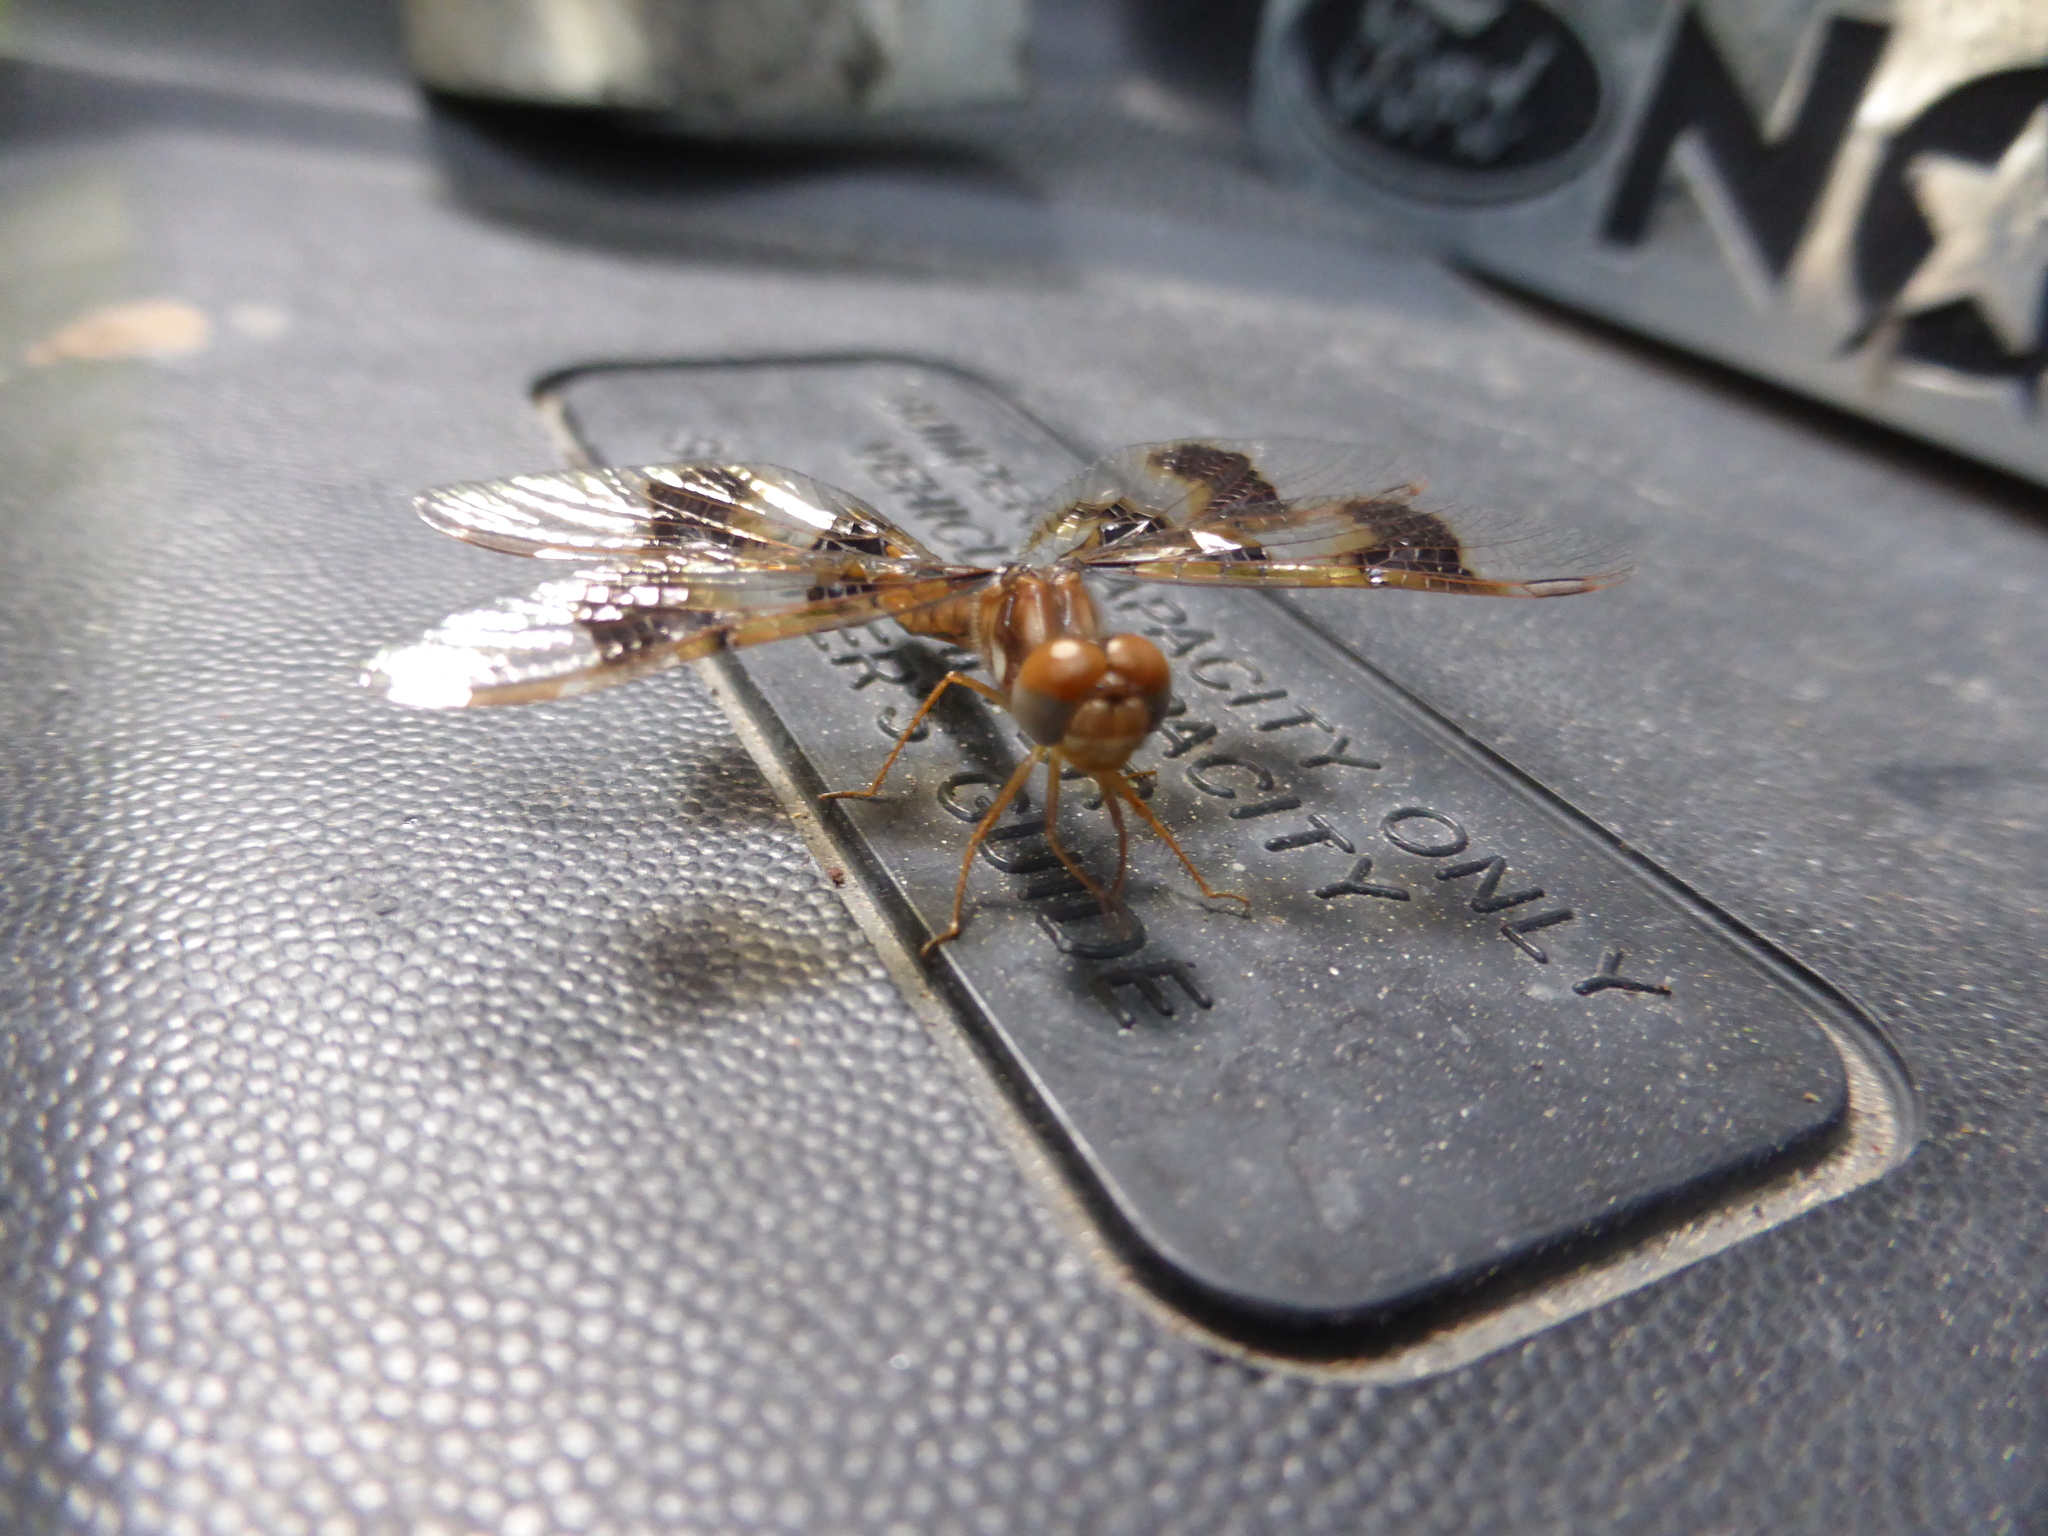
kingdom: Animalia
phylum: Arthropoda
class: Insecta
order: Odonata
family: Libellulidae
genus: Perithemis
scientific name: Perithemis tenera
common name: Eastern amberwing
